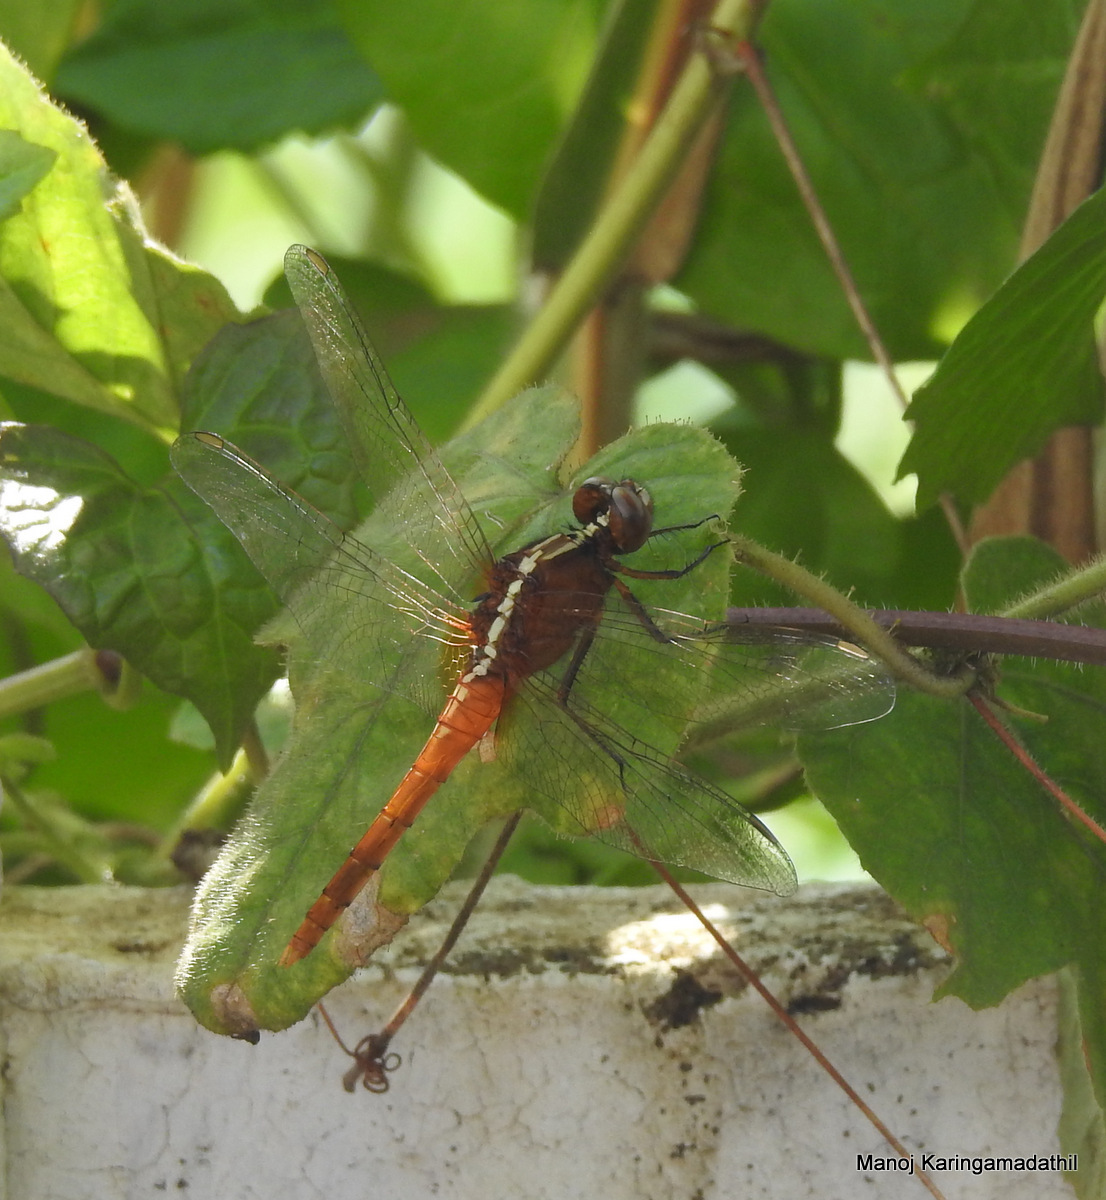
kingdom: Animalia
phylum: Arthropoda
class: Insecta
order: Odonata
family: Libellulidae
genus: Rhodothemis
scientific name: Rhodothemis rufa
